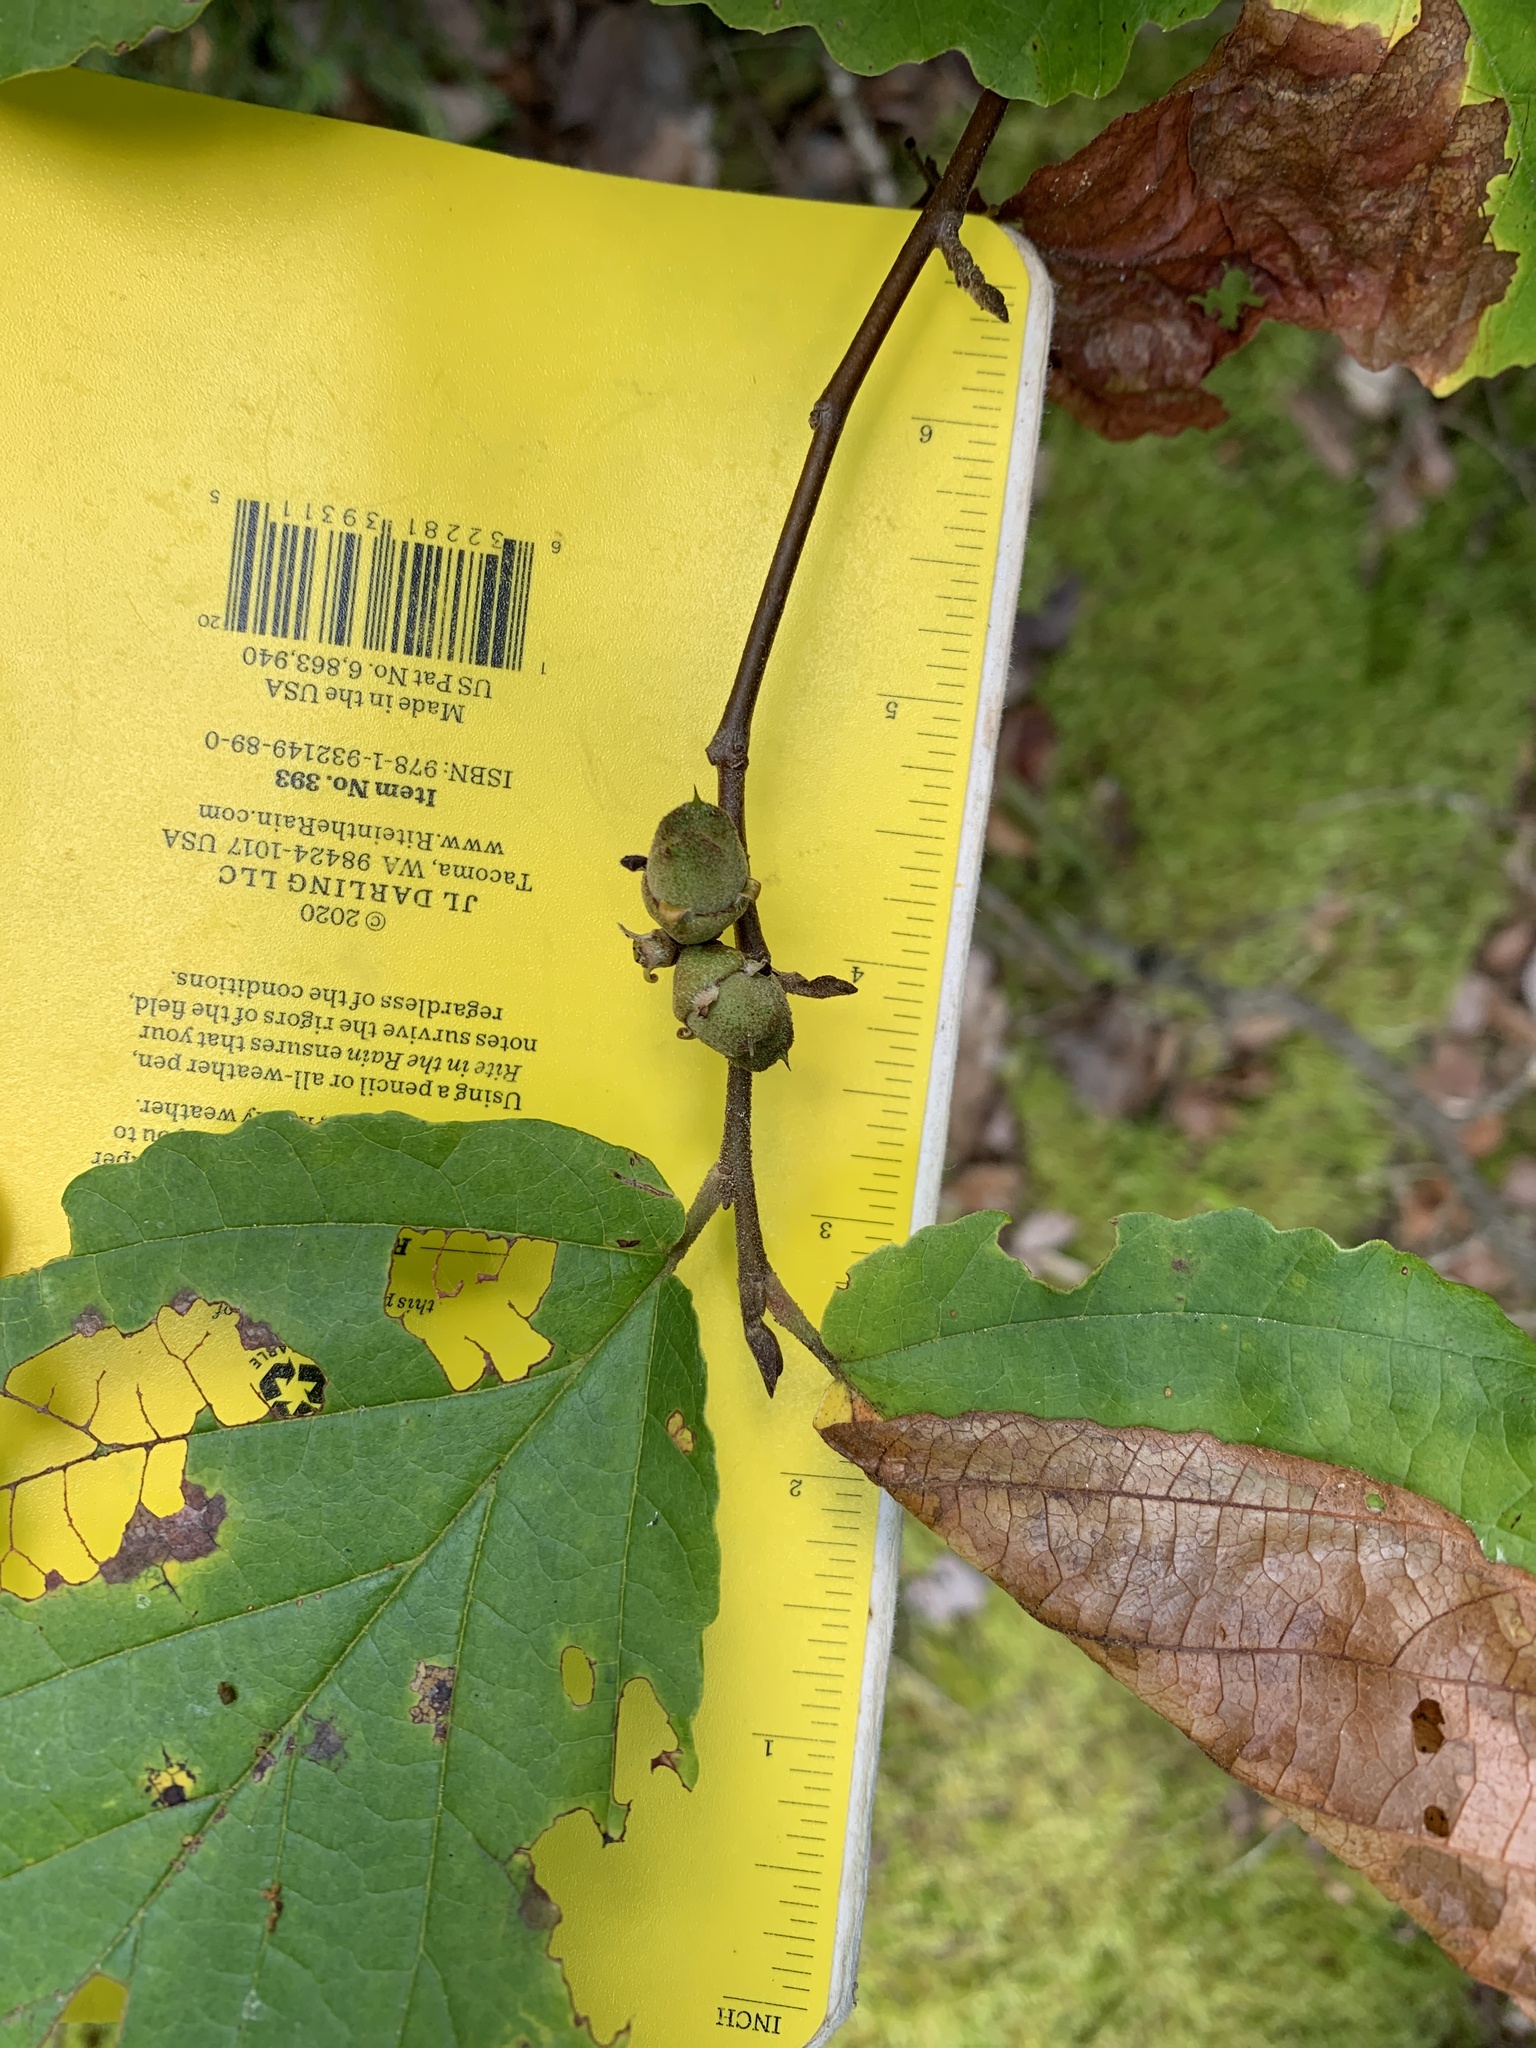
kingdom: Plantae
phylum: Tracheophyta
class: Magnoliopsida
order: Saxifragales
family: Hamamelidaceae
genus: Hamamelis
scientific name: Hamamelis virginiana
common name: Witch-hazel
